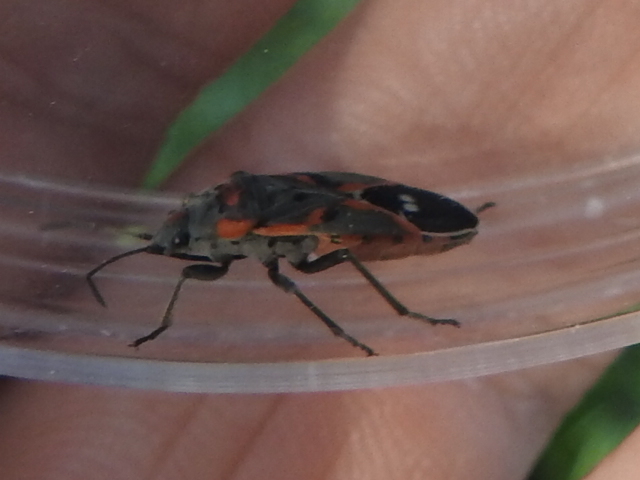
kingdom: Animalia
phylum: Arthropoda
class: Insecta
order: Hemiptera
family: Lygaeidae
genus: Lygaeus
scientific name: Lygaeus kalmii
